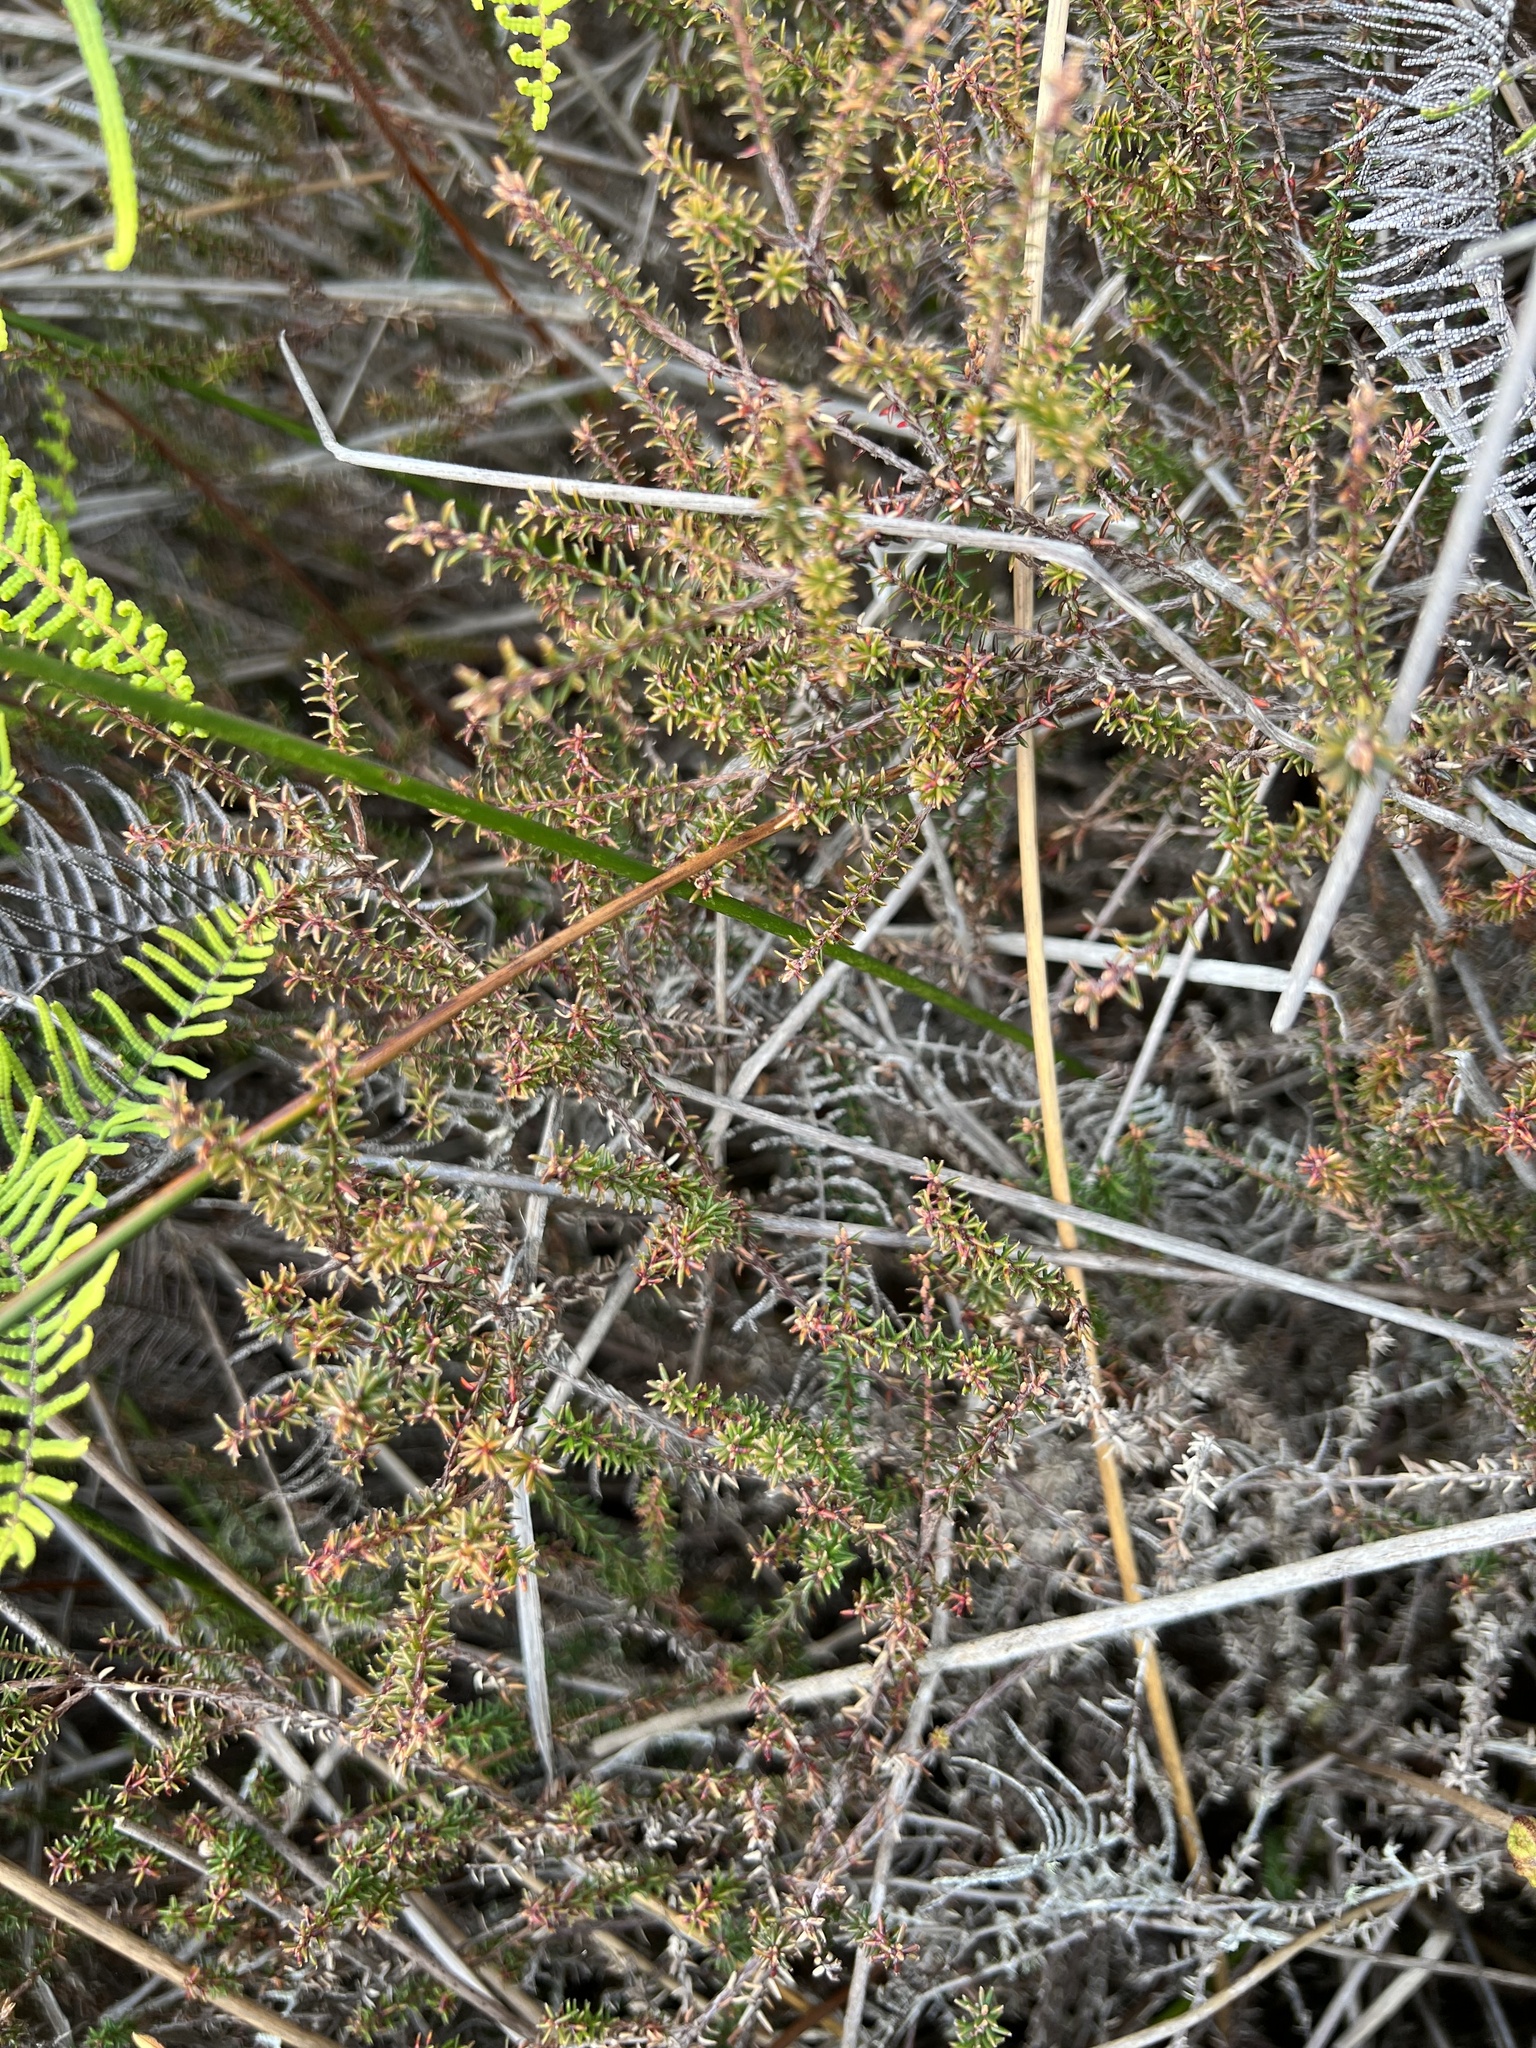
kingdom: Plantae
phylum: Tracheophyta
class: Magnoliopsida
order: Ericales
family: Ericaceae
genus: Androstoma
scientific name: Androstoma empetrifolia
